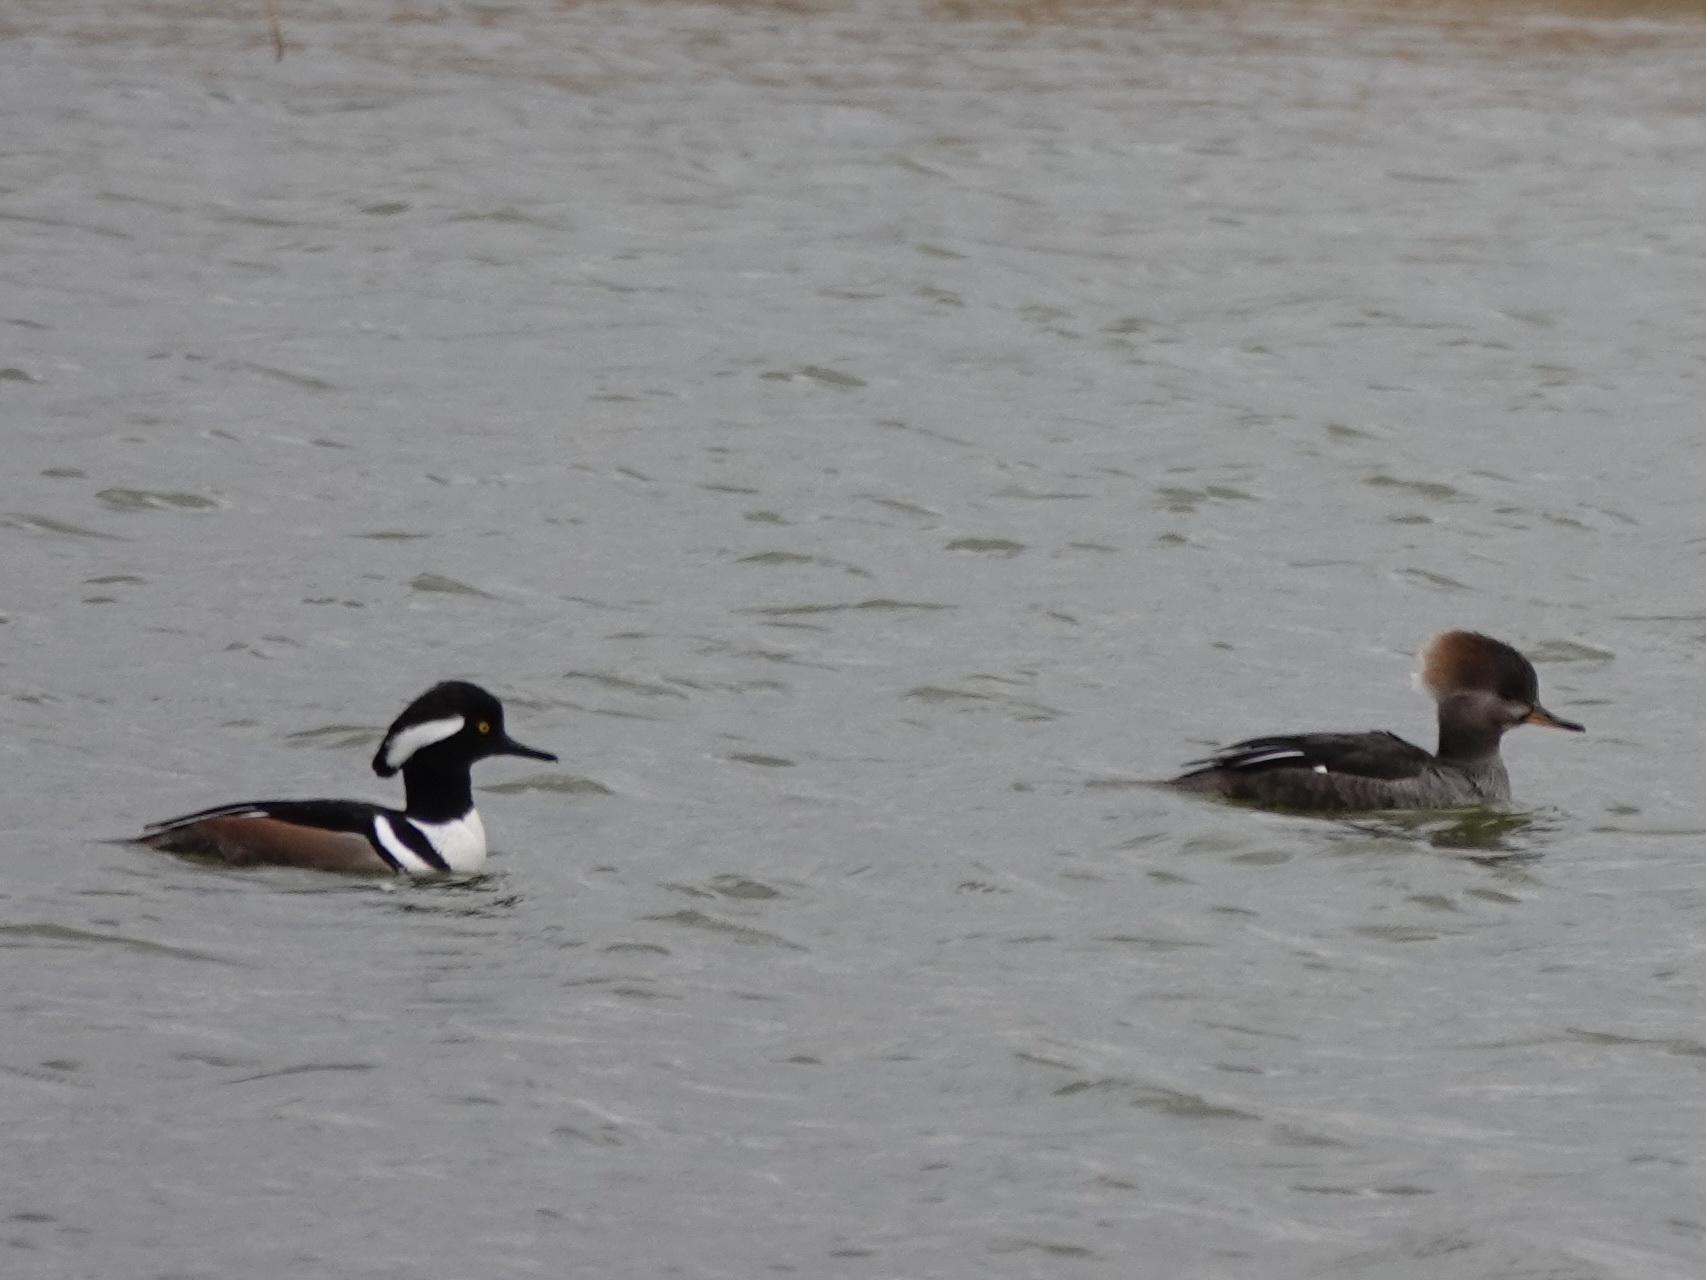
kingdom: Animalia
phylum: Chordata
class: Aves
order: Anseriformes
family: Anatidae
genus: Lophodytes
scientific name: Lophodytes cucullatus
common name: Hooded merganser
